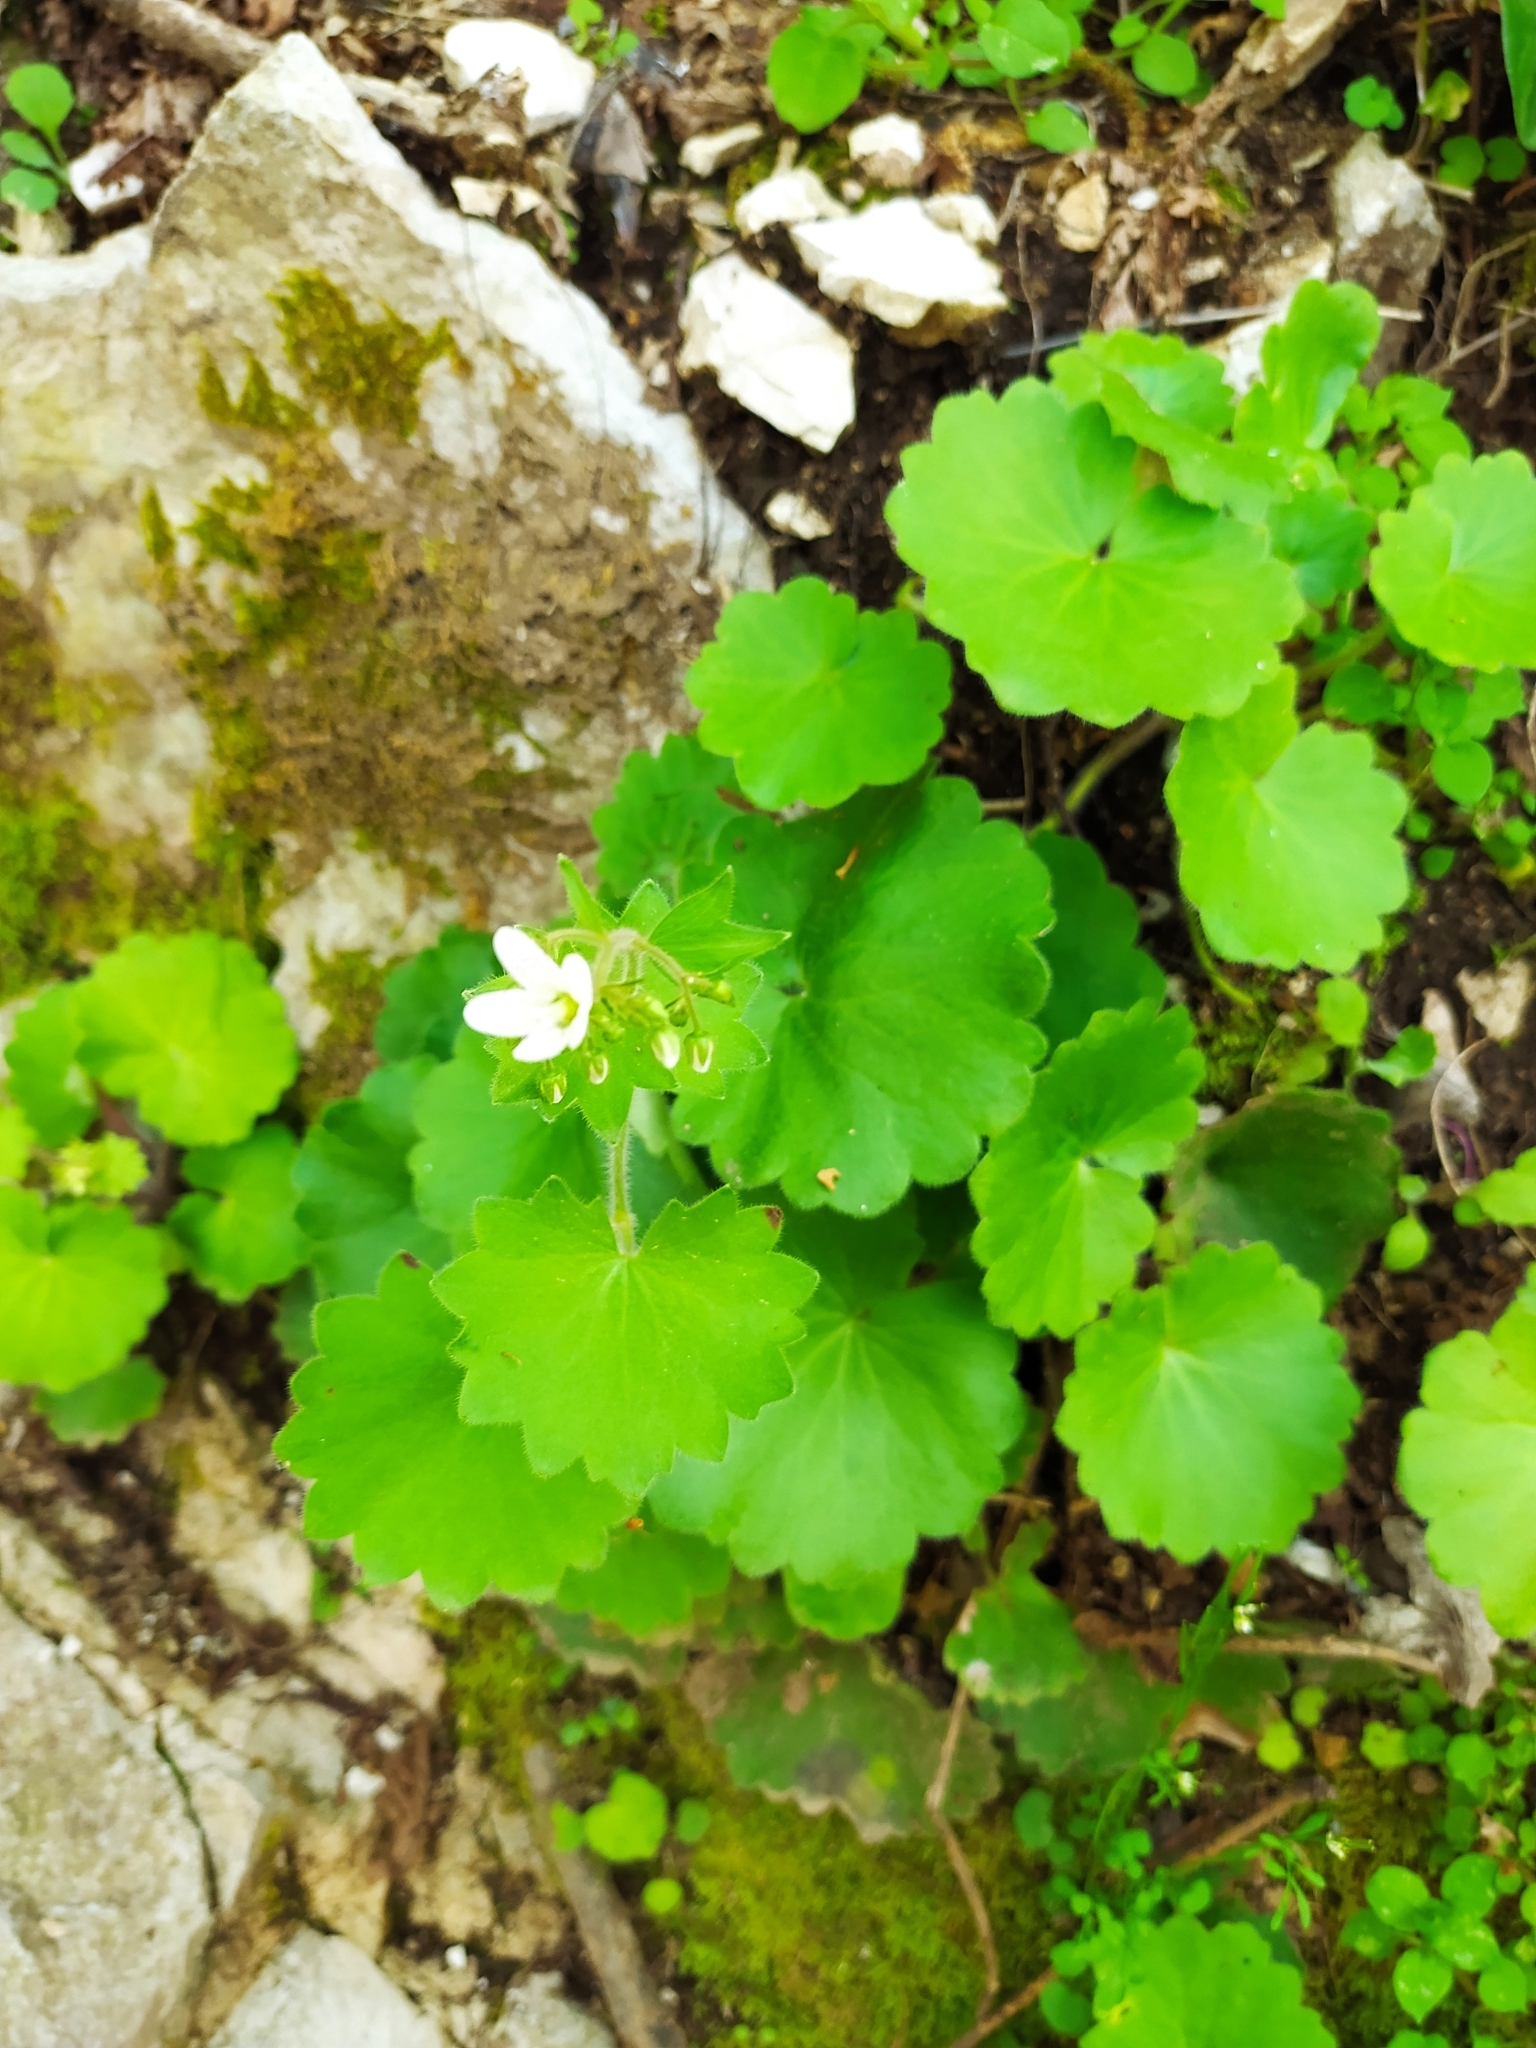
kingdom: Plantae
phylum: Tracheophyta
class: Magnoliopsida
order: Saxifragales
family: Saxifragaceae
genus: Saxifraga
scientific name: Saxifraga rotundifolia
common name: Round-leaved saxifrage
